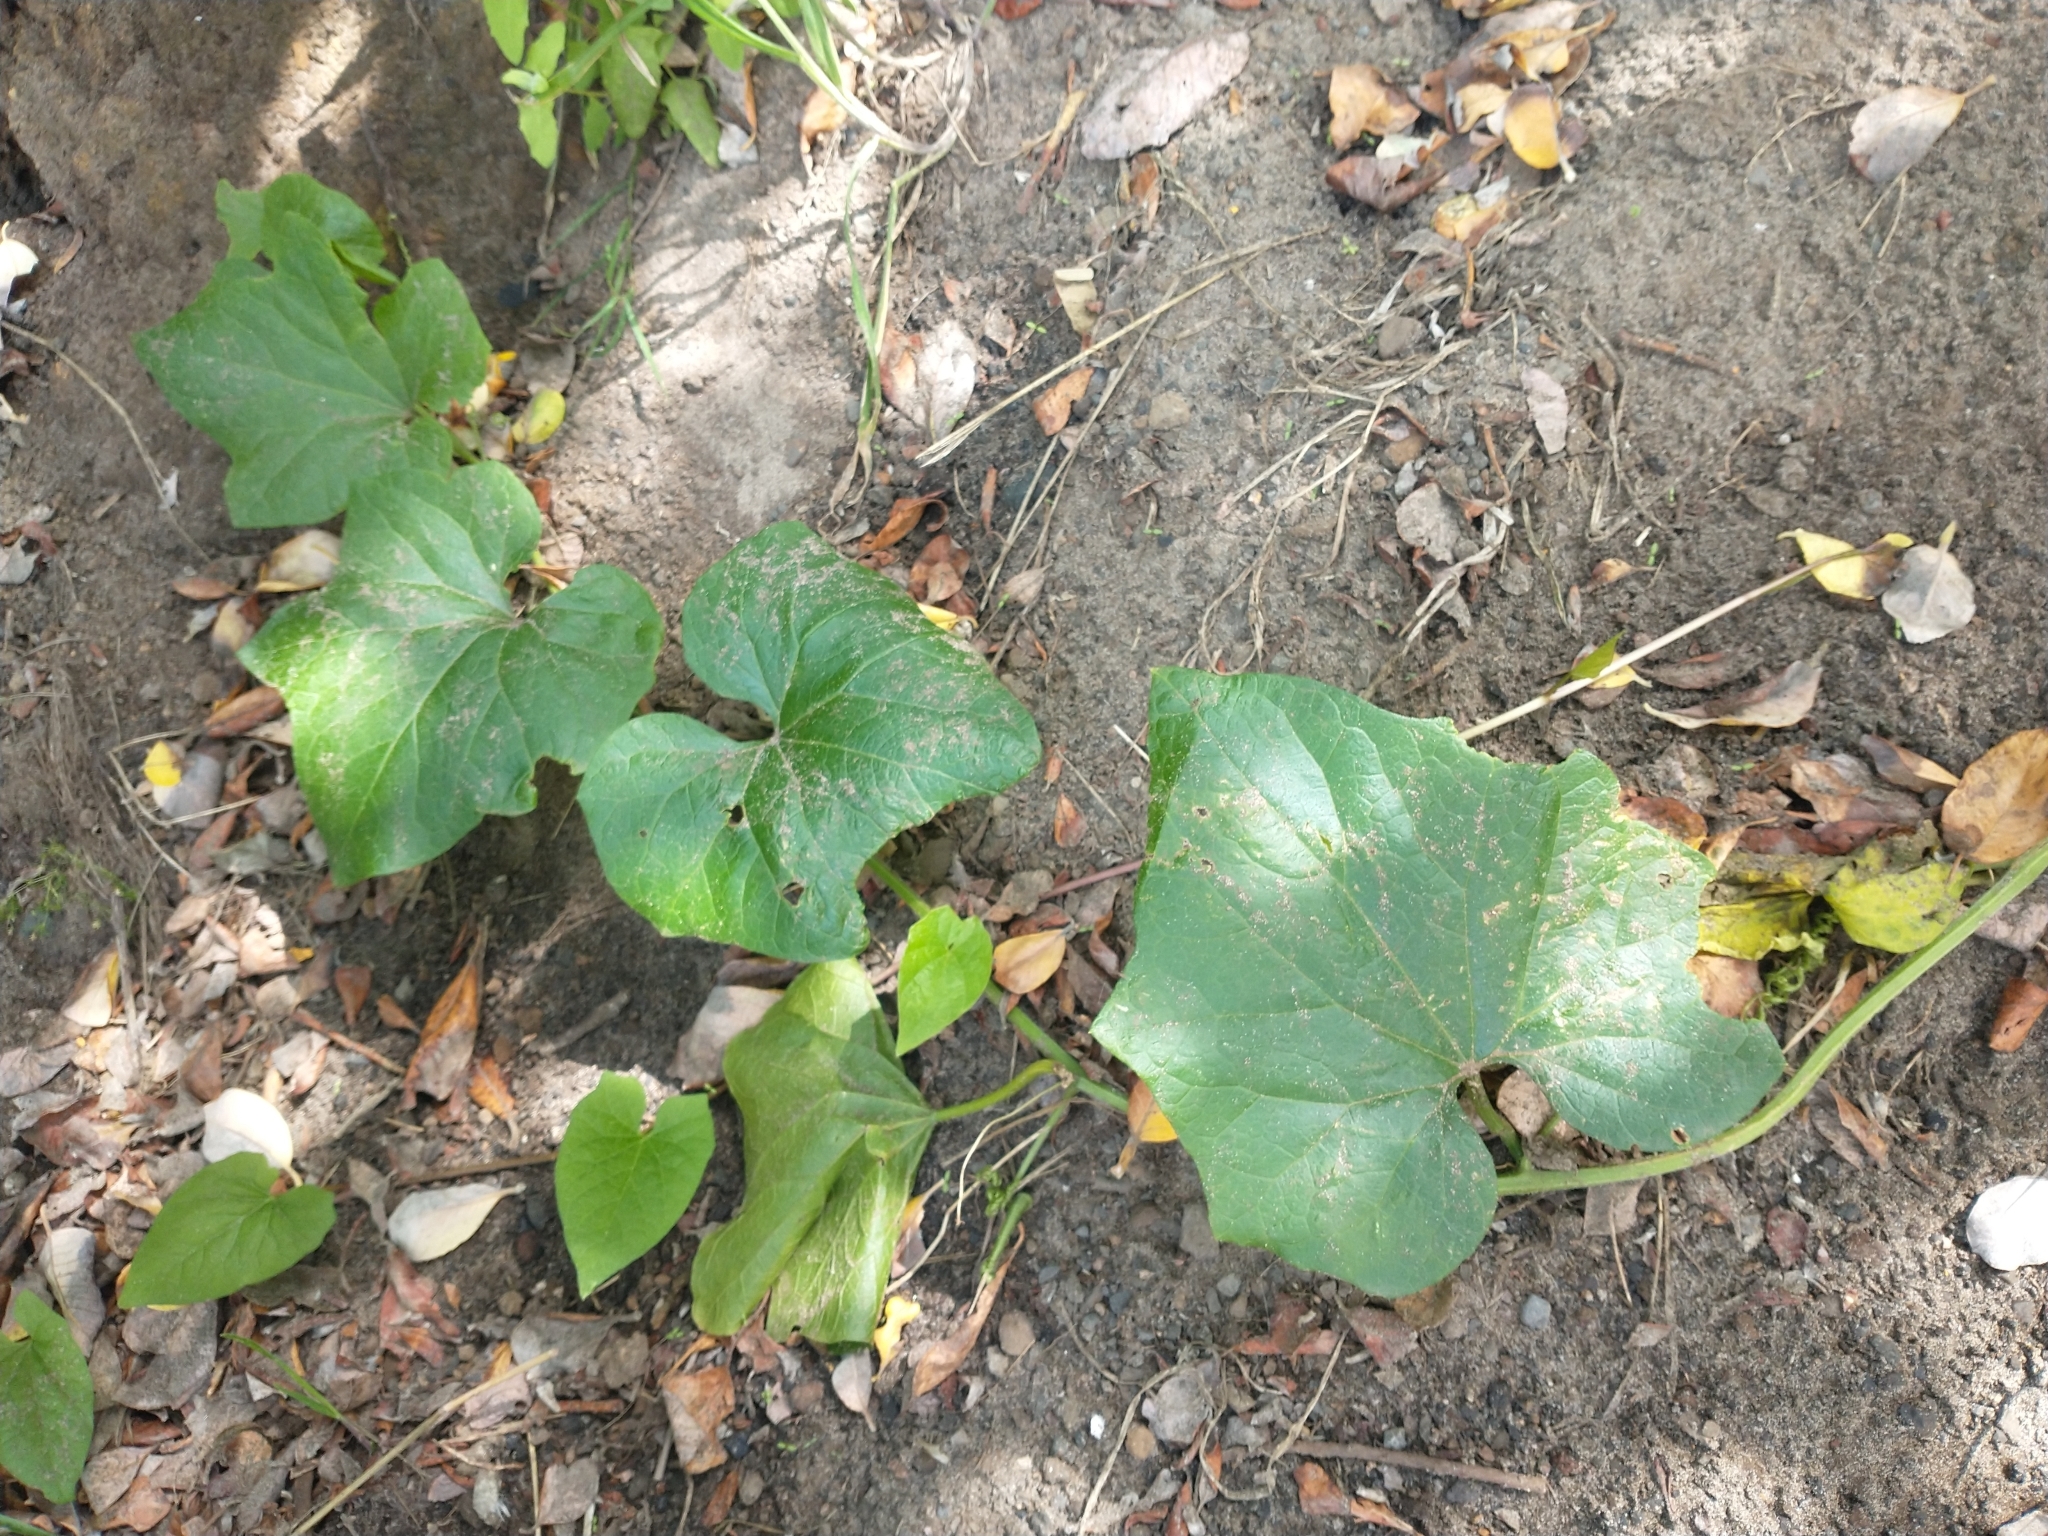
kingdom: Plantae
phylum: Tracheophyta
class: Magnoliopsida
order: Cucurbitales
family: Cucurbitaceae
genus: Marah
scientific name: Marah oregana
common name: Coastal manroot
